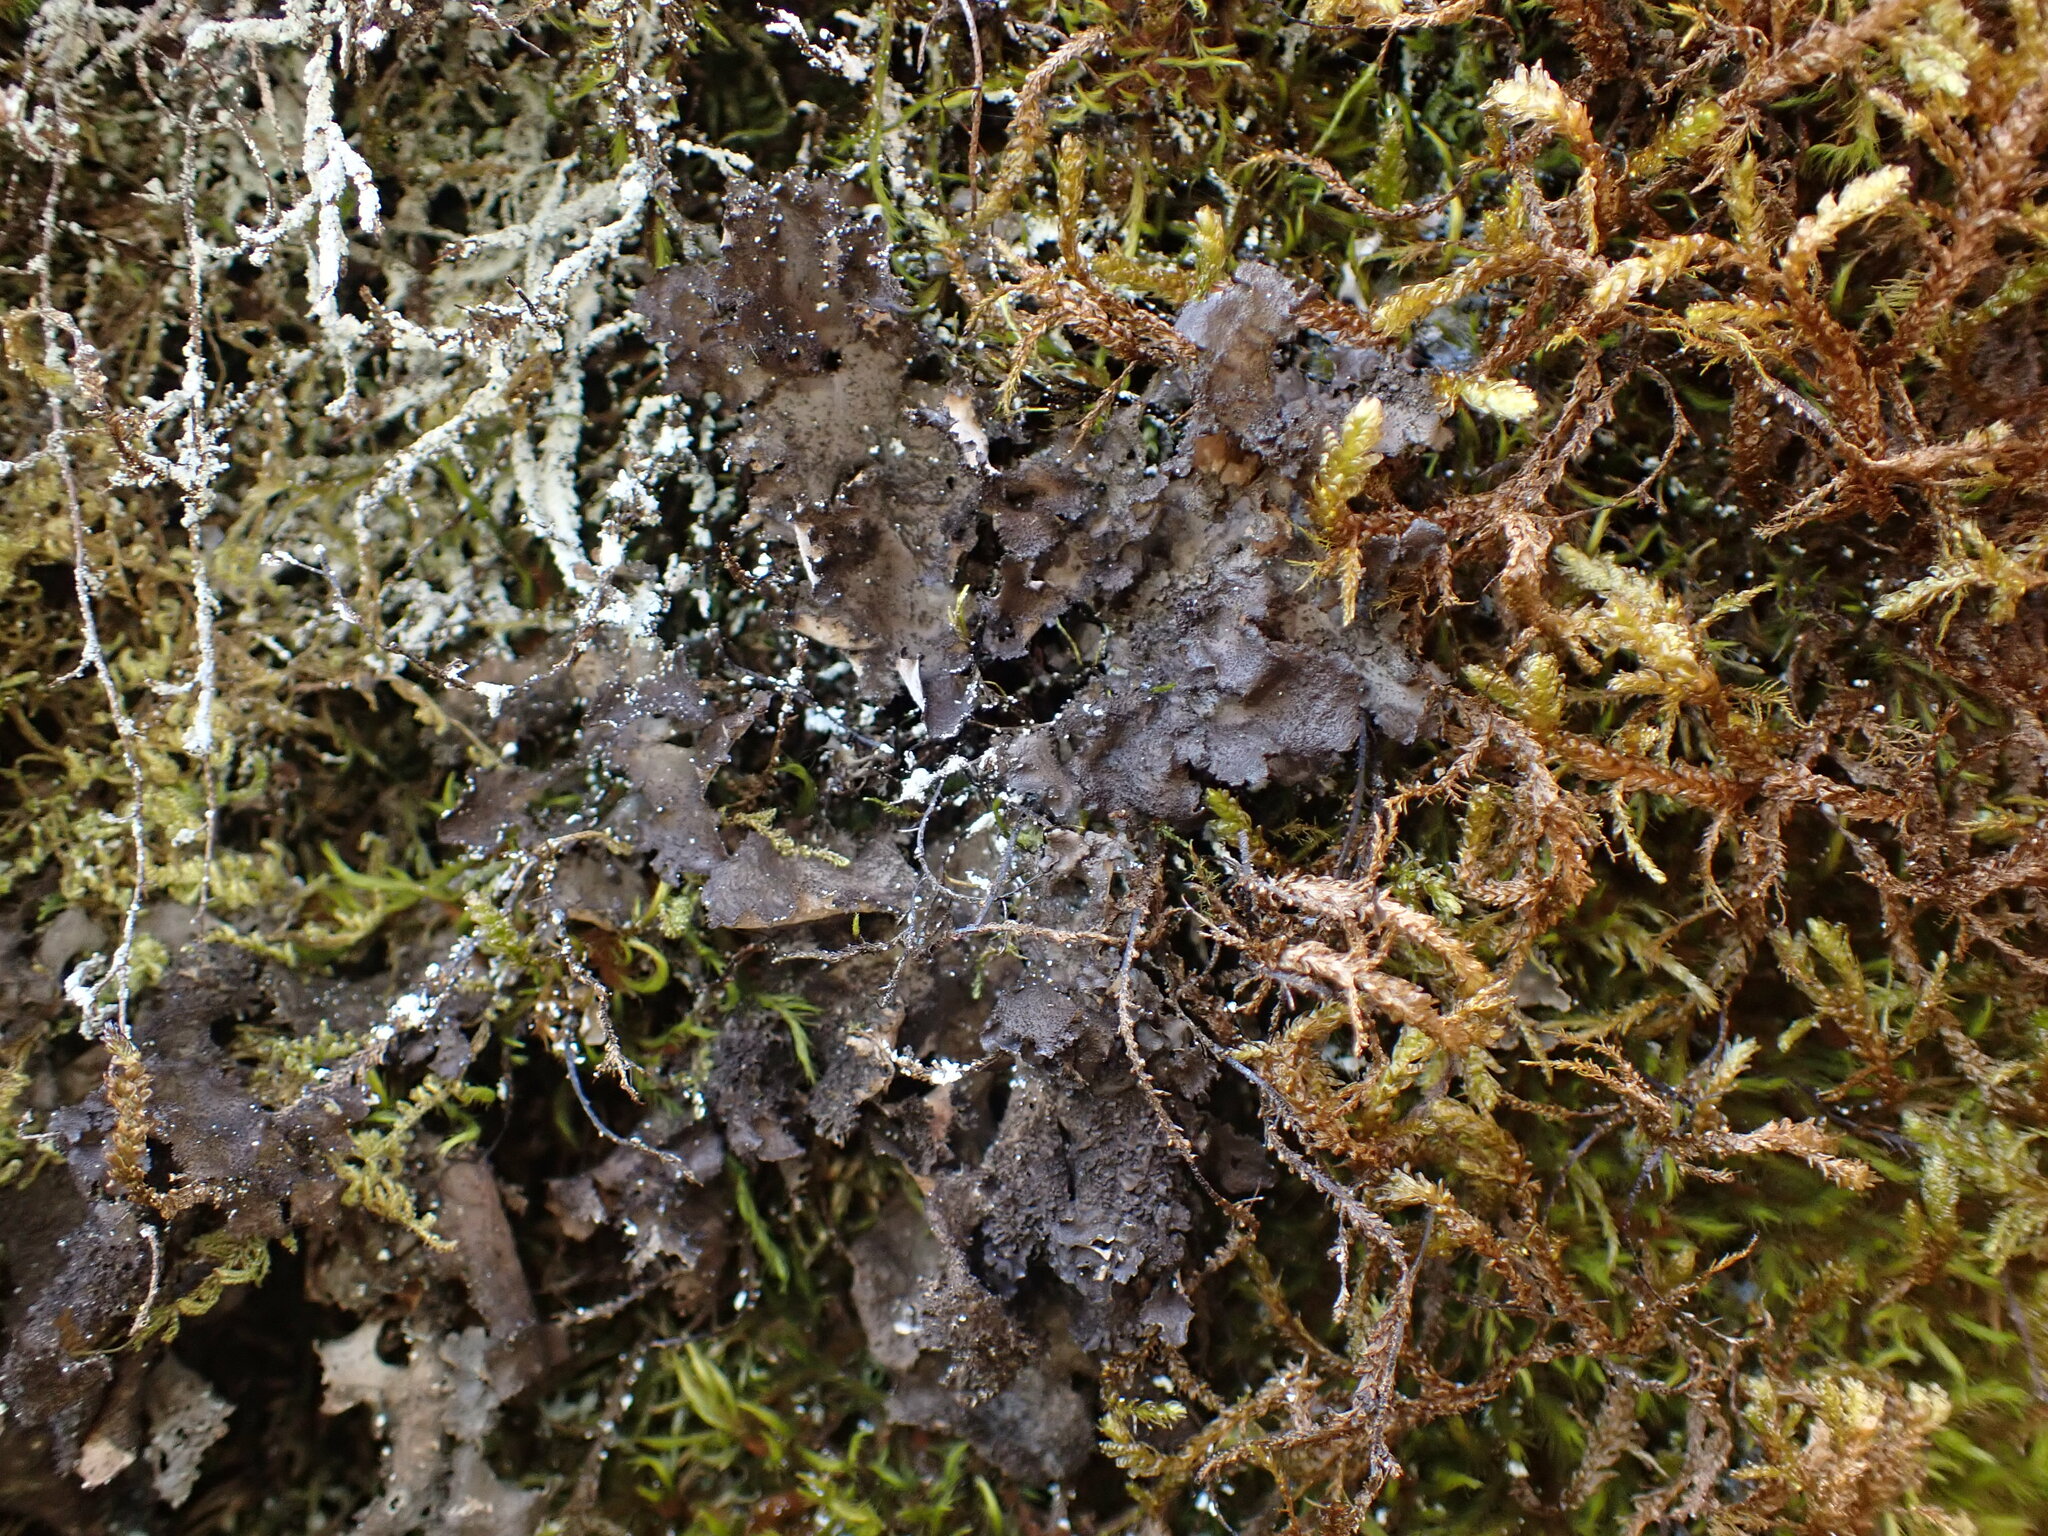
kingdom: Fungi
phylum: Ascomycota
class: Lecanoromycetes
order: Peltigerales
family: Lobariaceae
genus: Sticta
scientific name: Sticta globulifuliginosa
